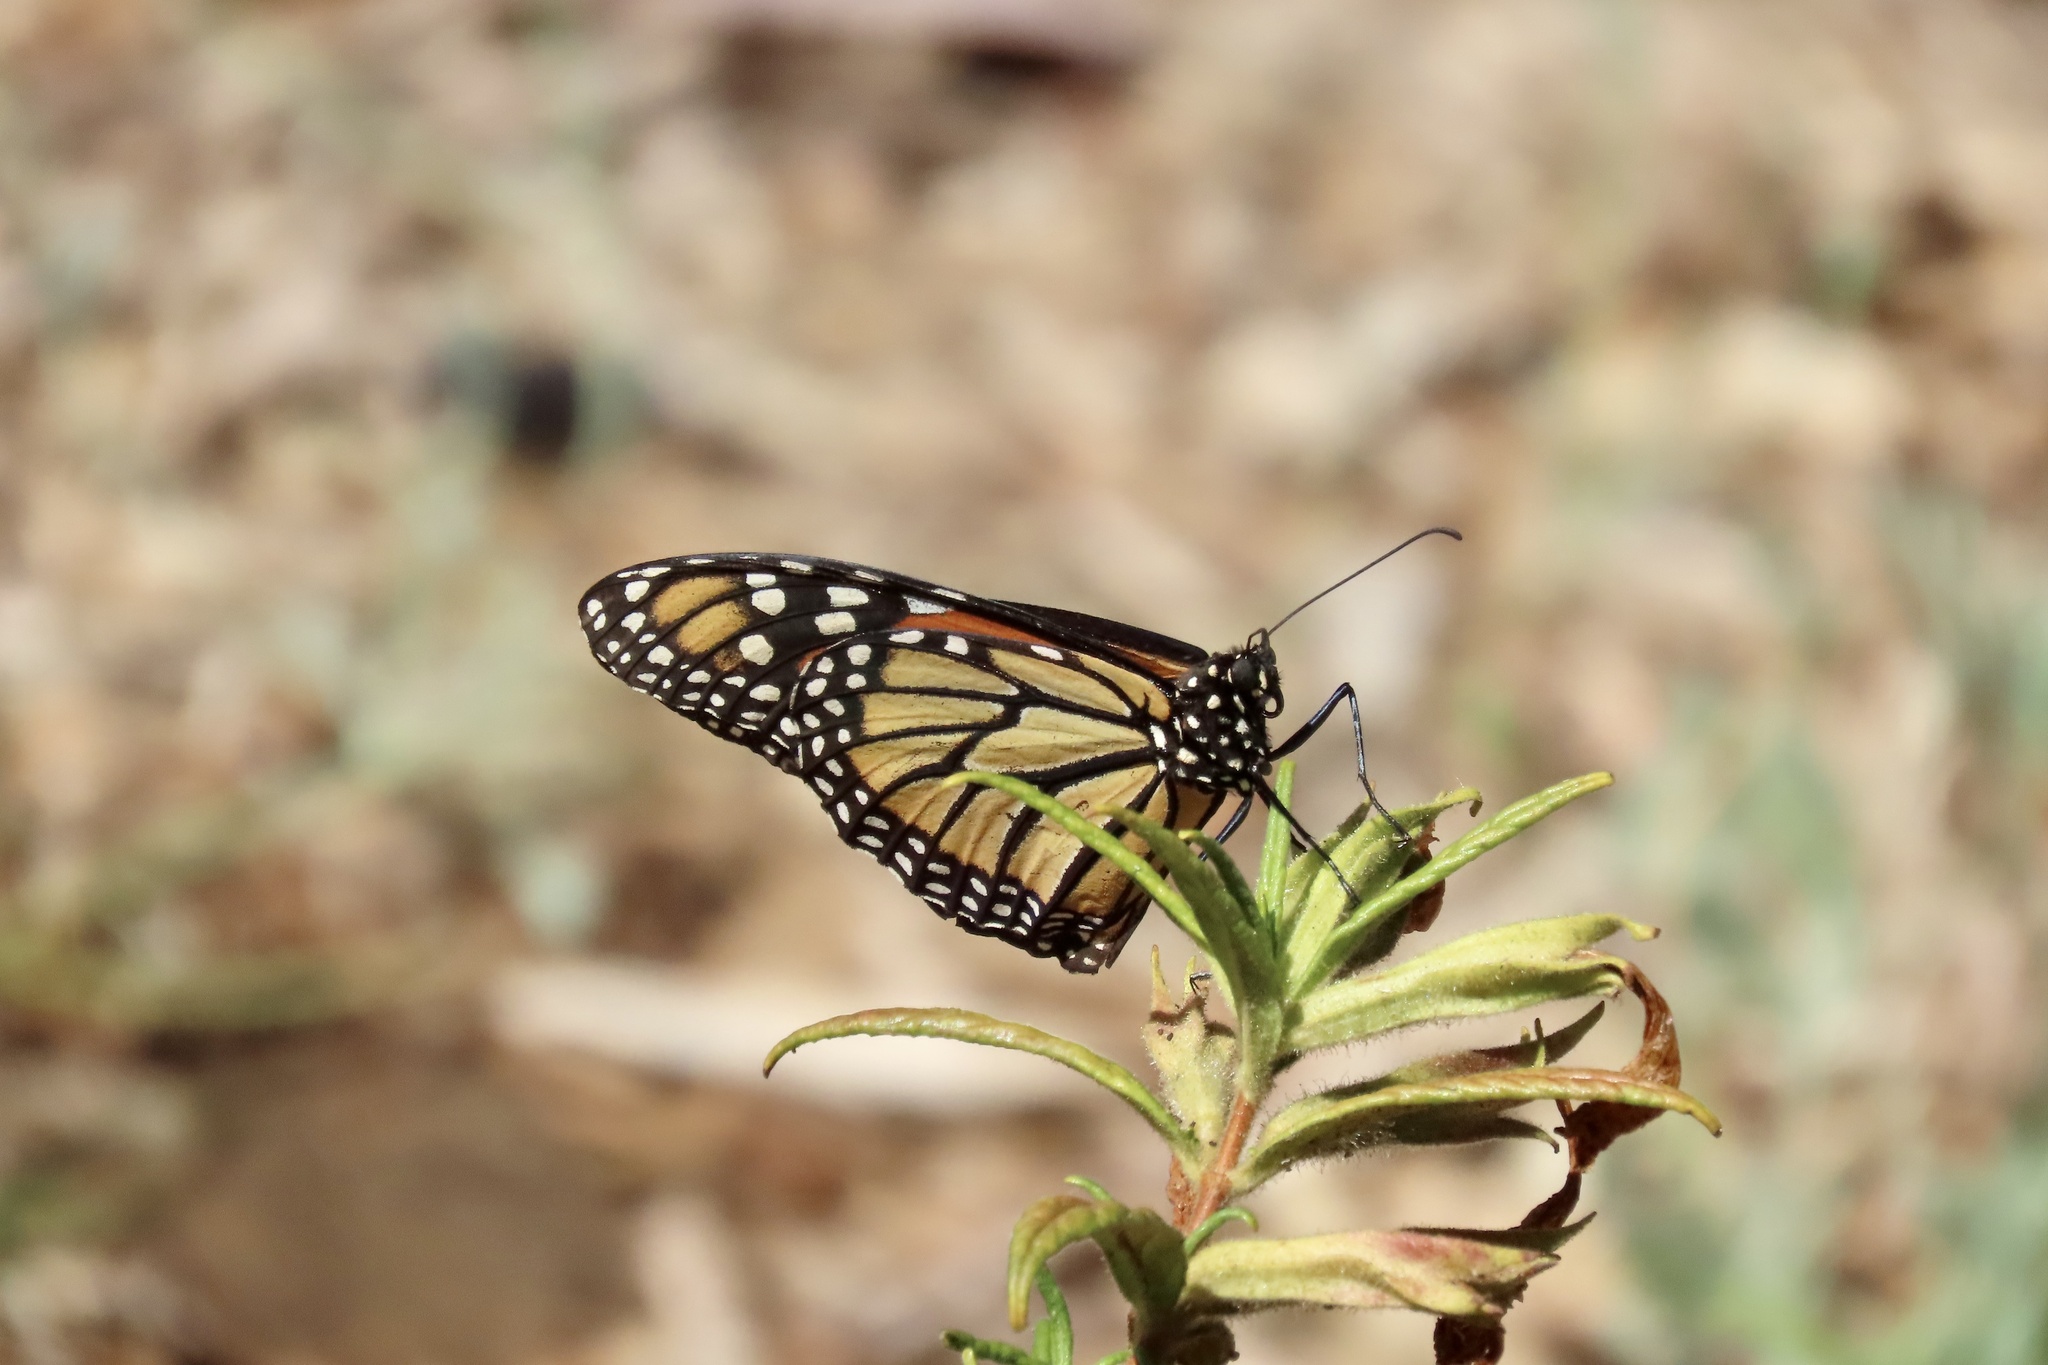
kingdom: Animalia
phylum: Arthropoda
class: Insecta
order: Lepidoptera
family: Nymphalidae
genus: Danaus
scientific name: Danaus plexippus
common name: Monarch
